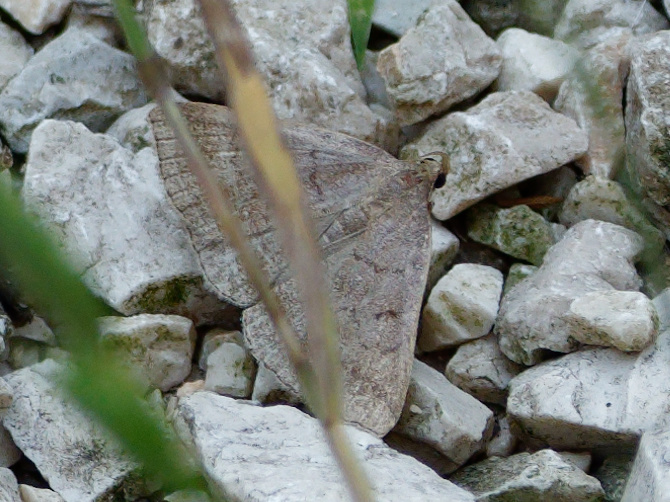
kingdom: Animalia
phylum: Arthropoda
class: Insecta
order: Lepidoptera
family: Erebidae
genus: Zanclognatha
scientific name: Zanclognatha lunalis
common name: Jubilee fan-foot
